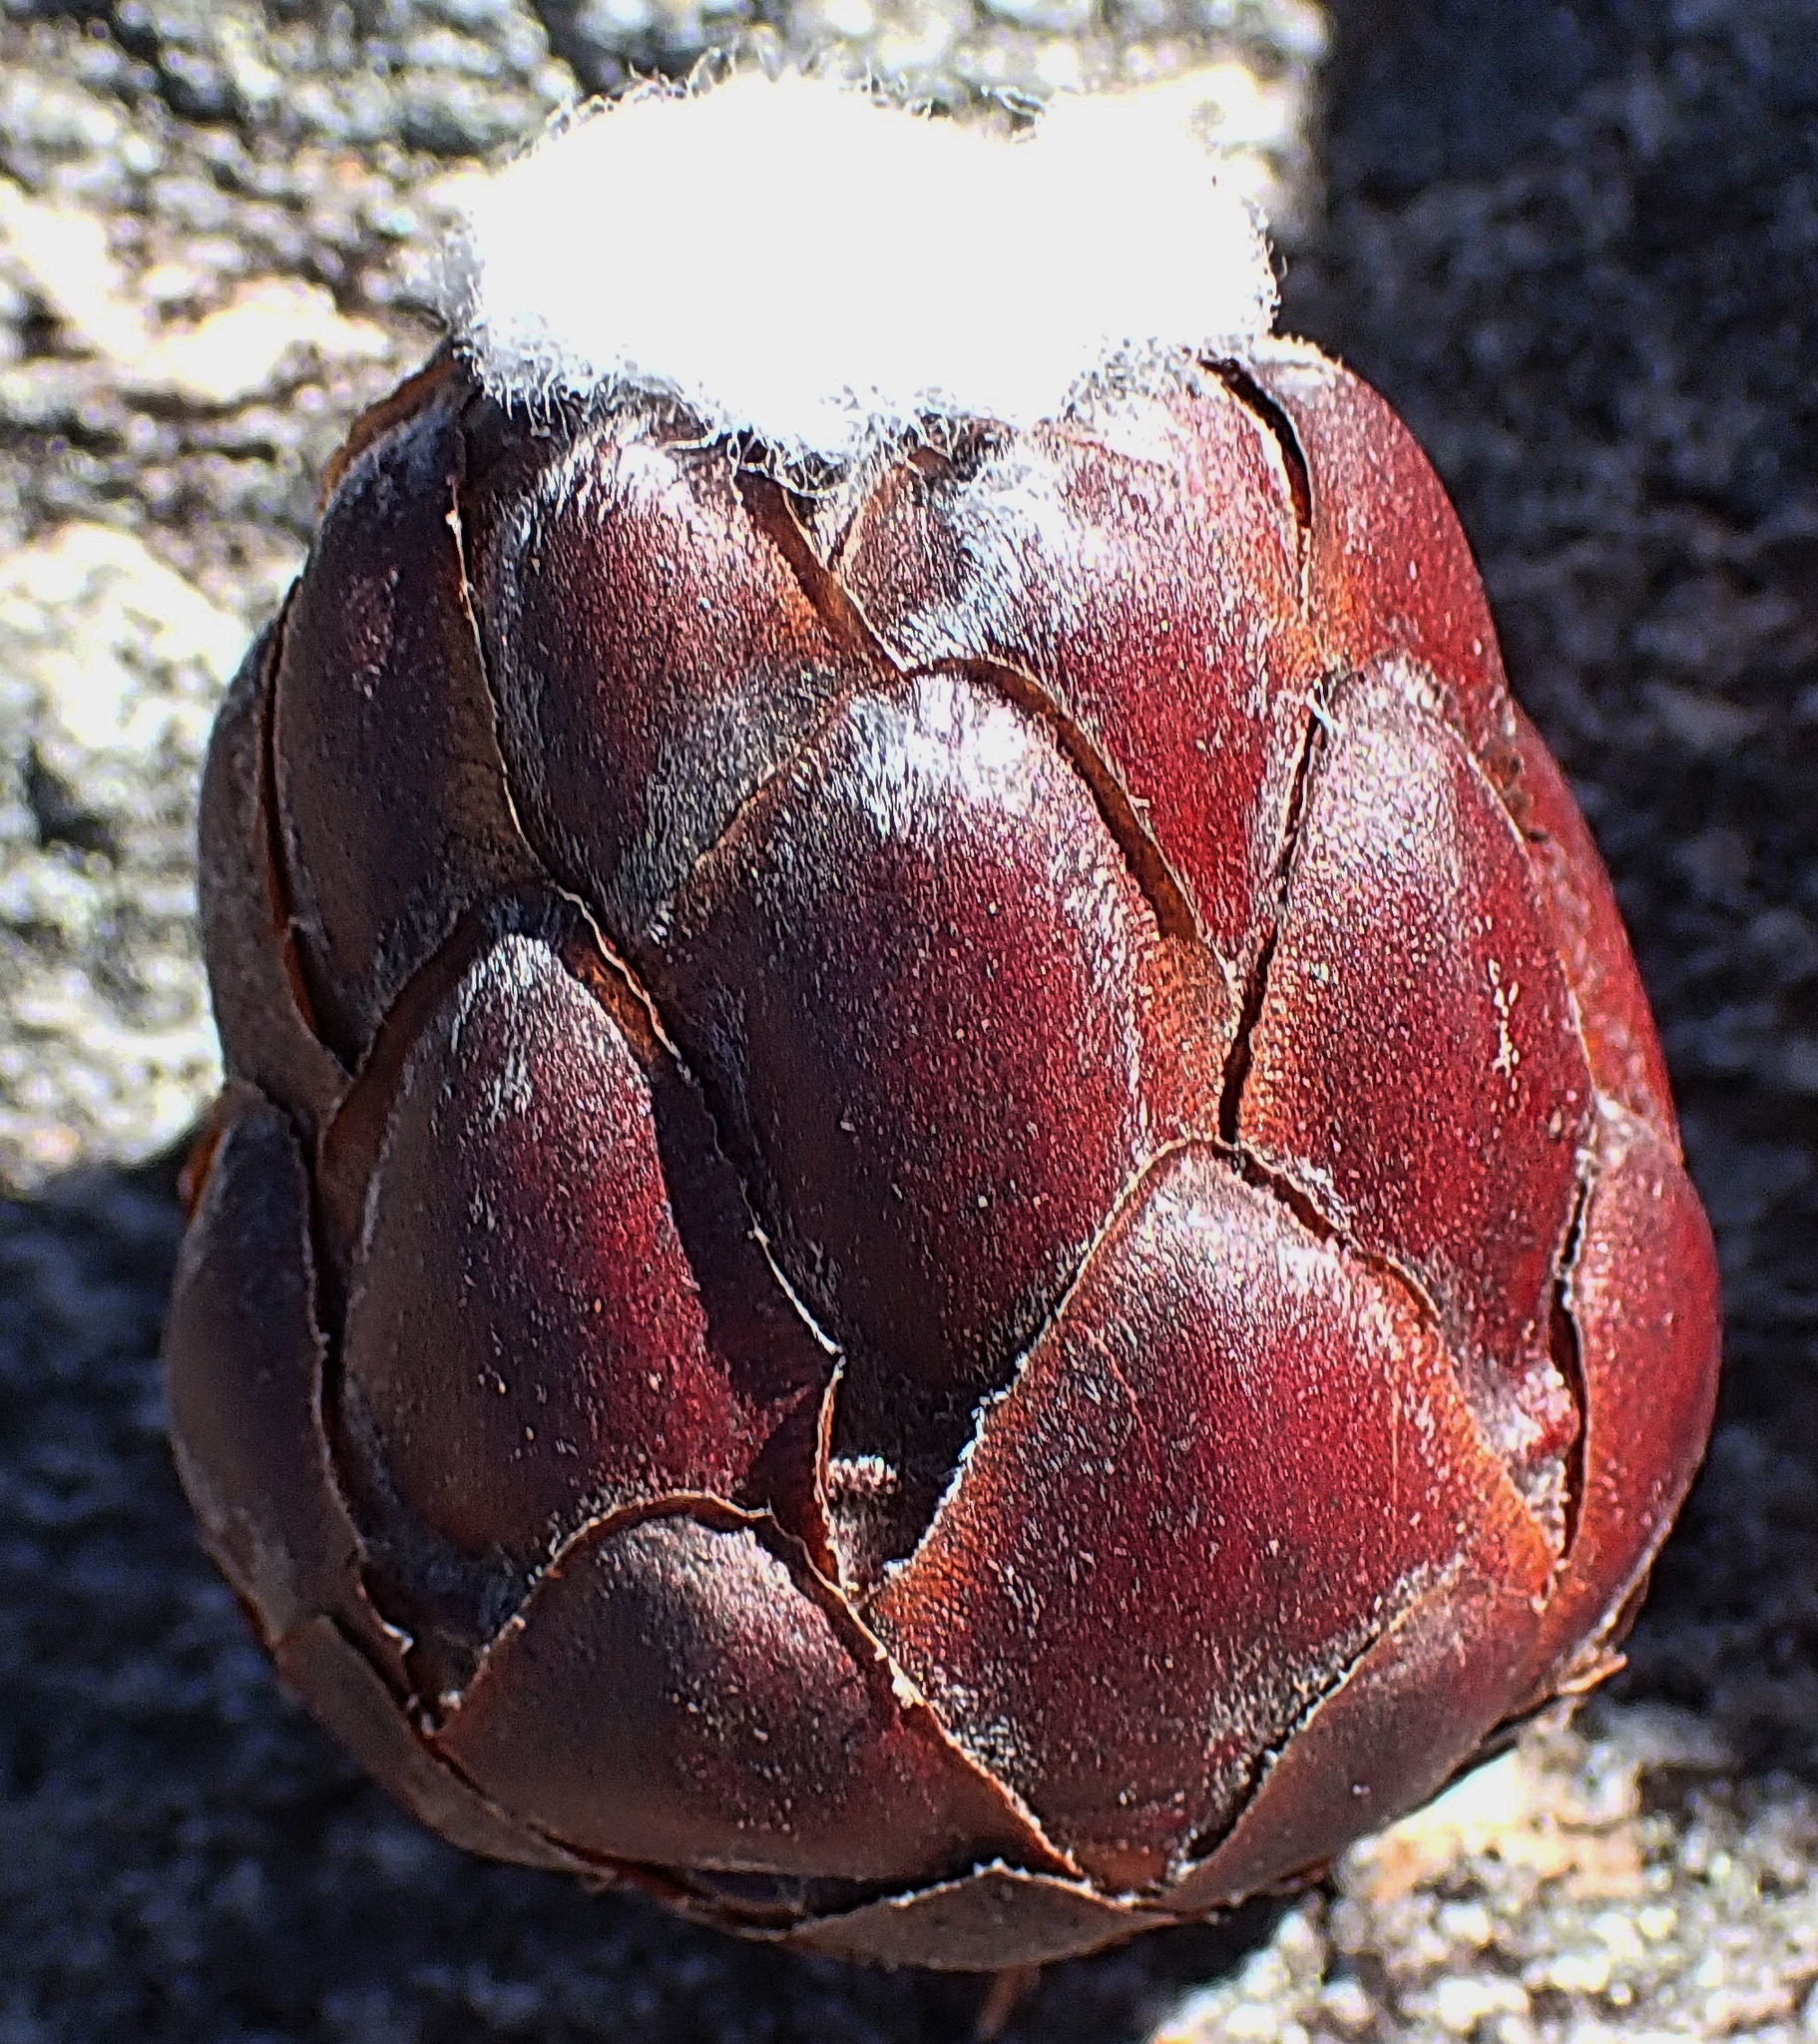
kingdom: Plantae
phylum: Tracheophyta
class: Magnoliopsida
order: Proteales
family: Proteaceae
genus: Protea
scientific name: Protea foliosa
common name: Leafy sugarbush
